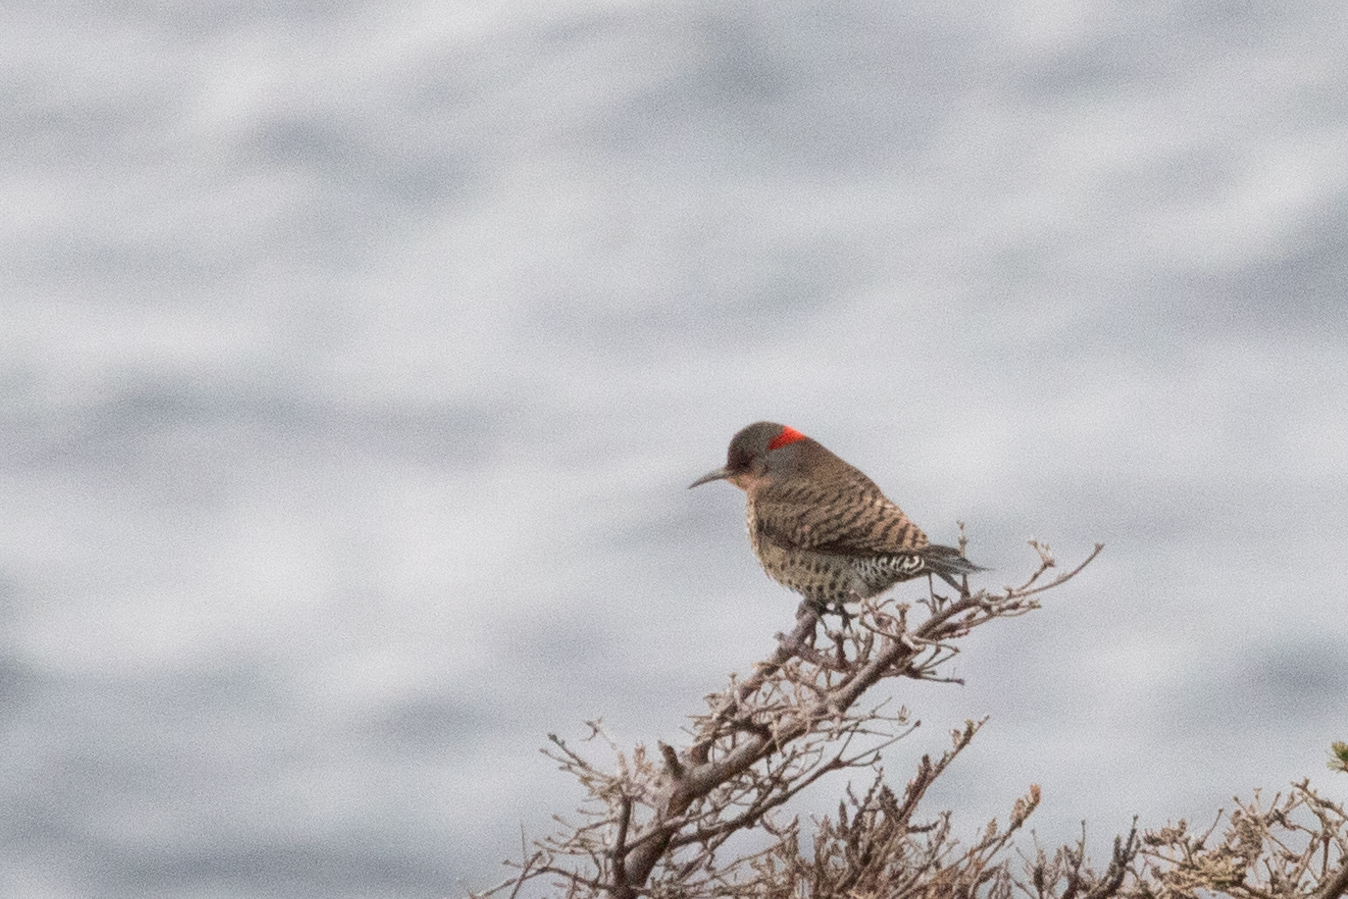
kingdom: Animalia
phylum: Chordata
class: Aves
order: Piciformes
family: Picidae
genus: Colaptes
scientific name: Colaptes auratus
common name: Northern flicker
